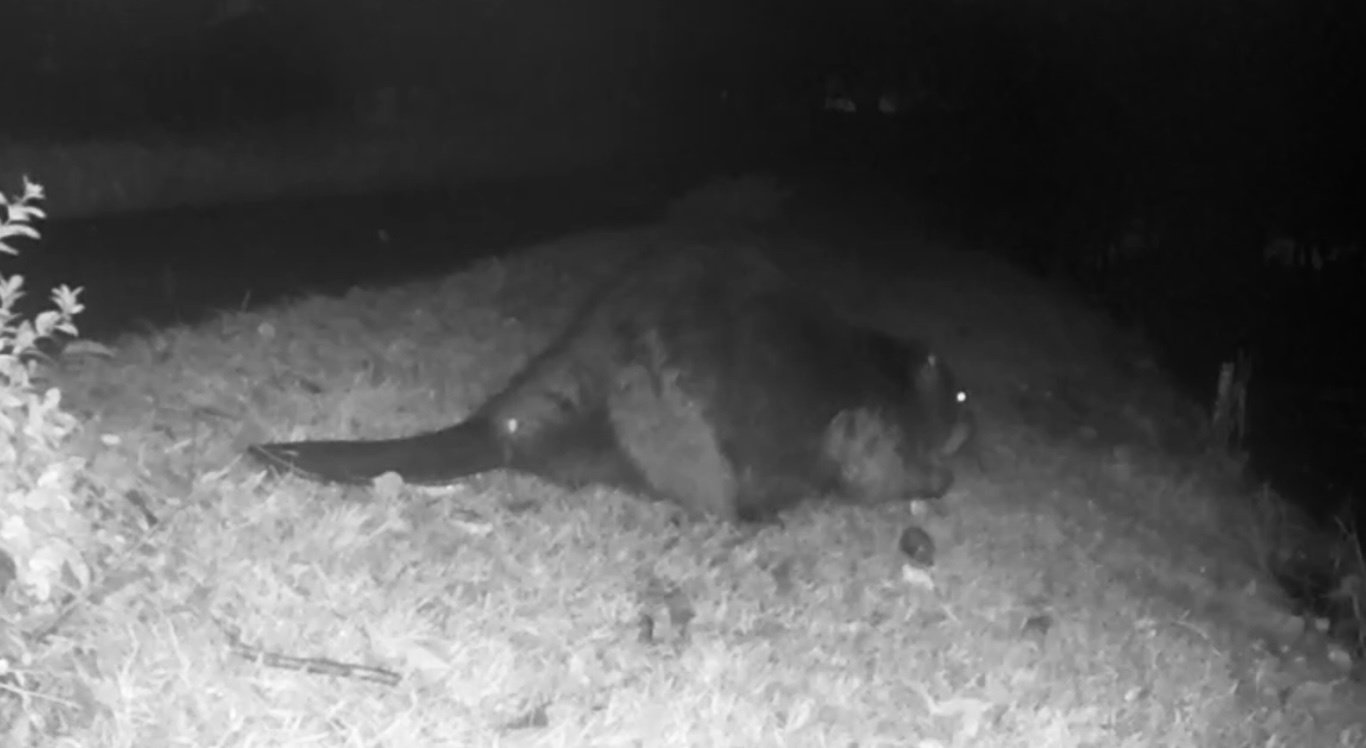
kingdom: Animalia
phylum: Chordata
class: Mammalia
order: Rodentia
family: Castoridae
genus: Castor
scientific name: Castor canadensis
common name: American beaver
